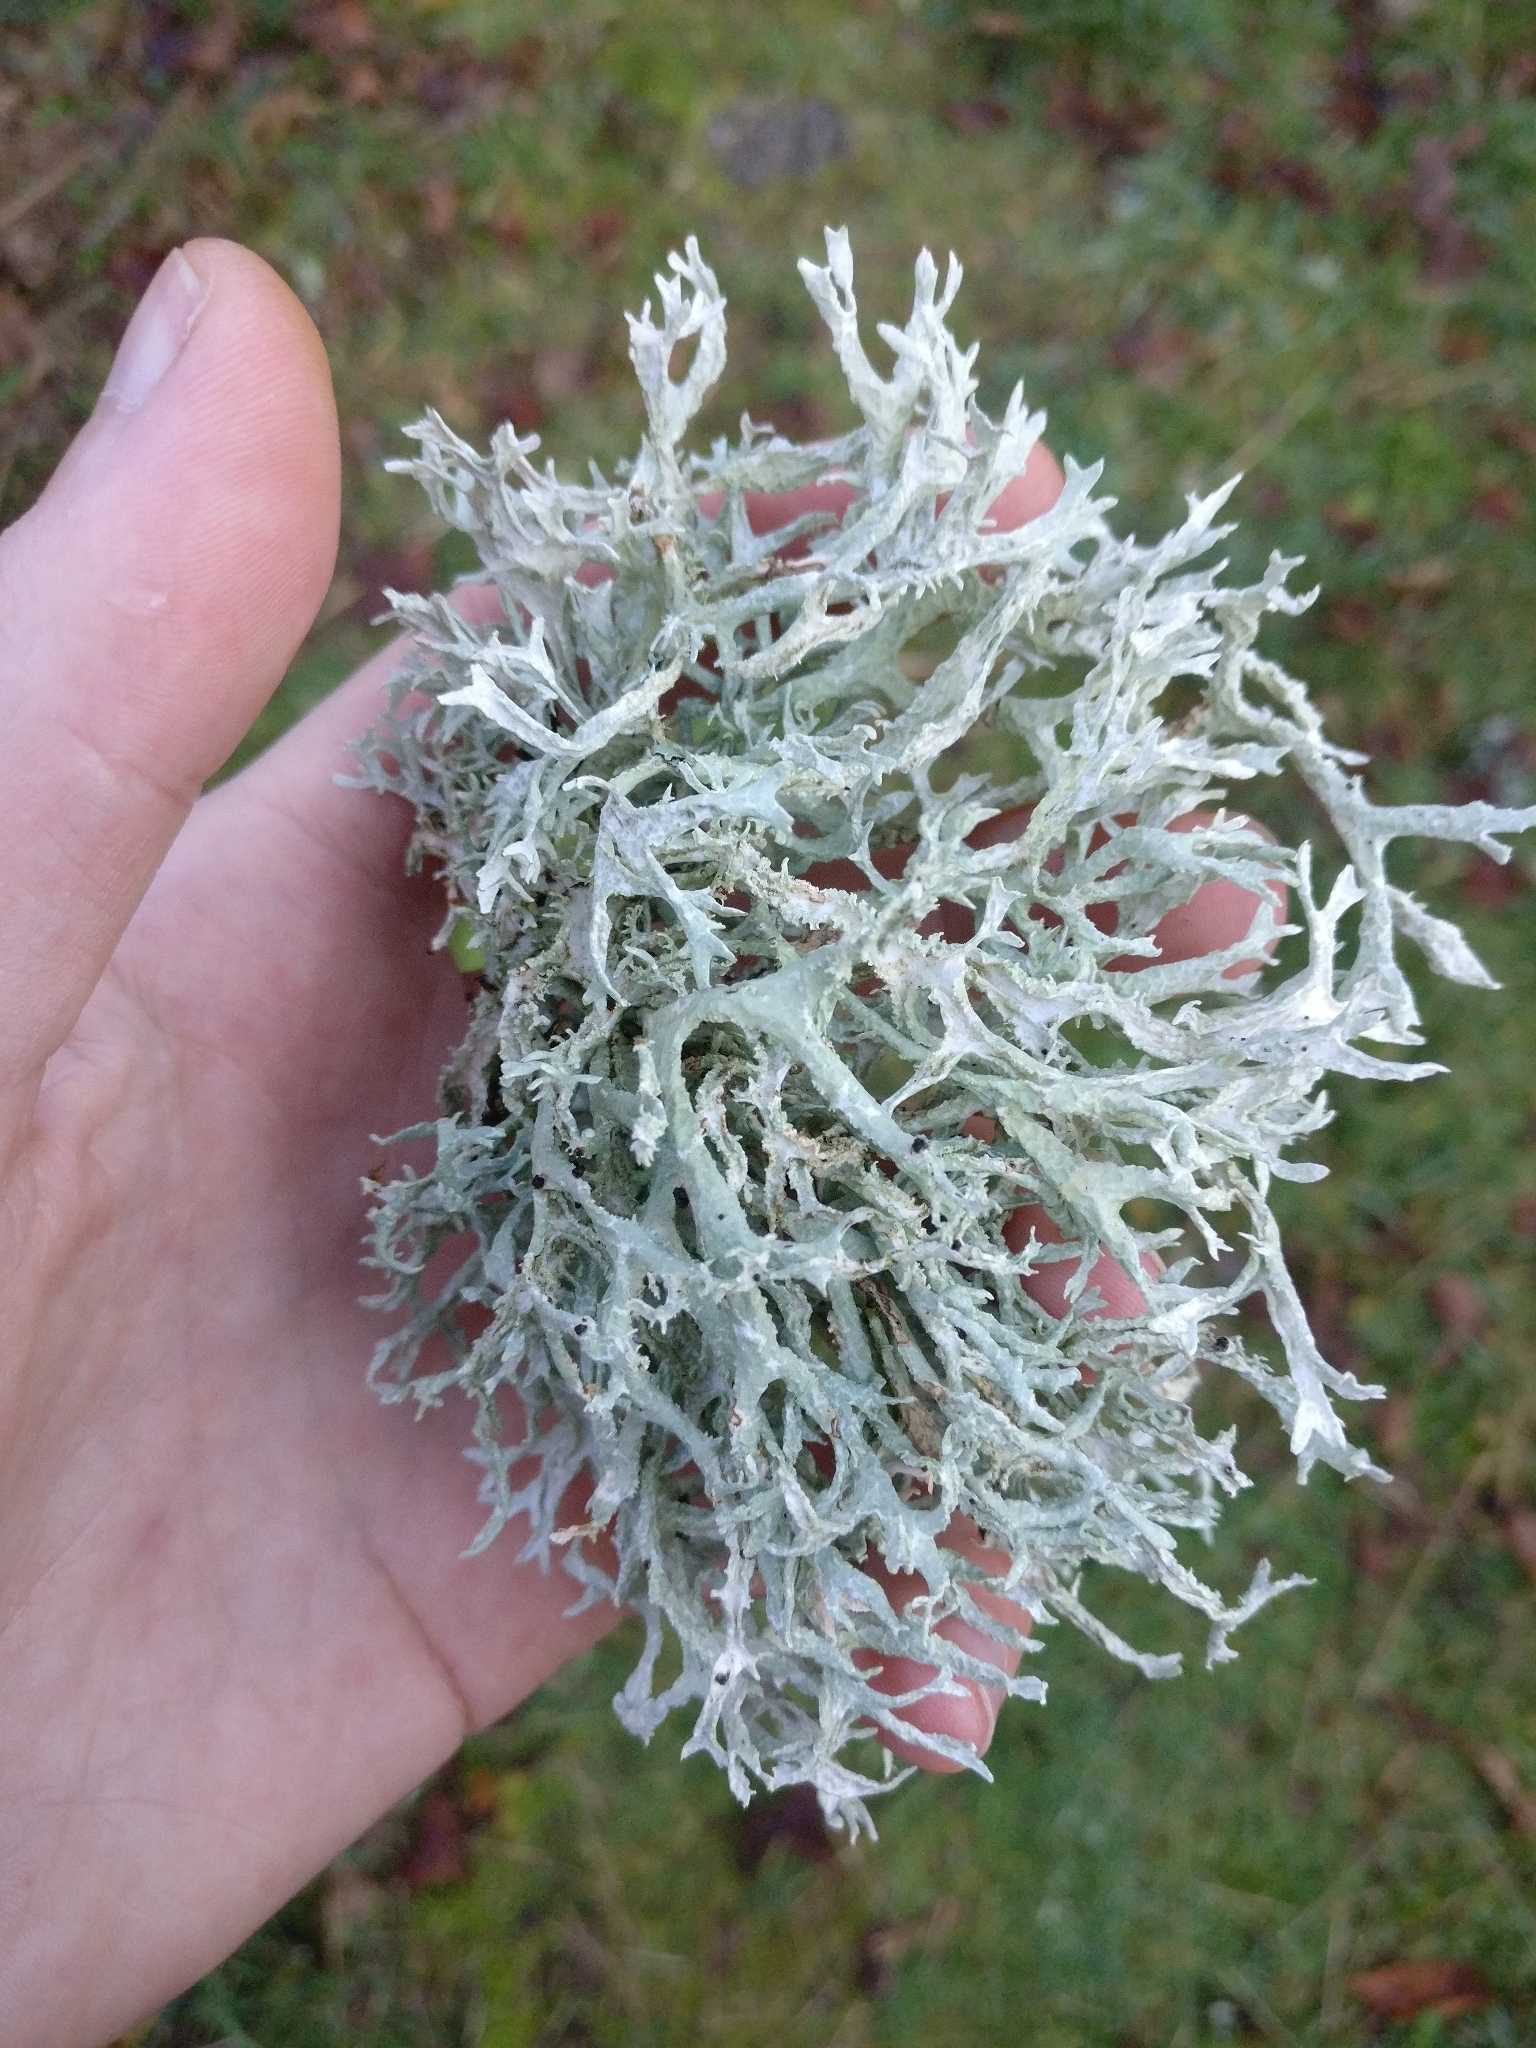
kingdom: Fungi
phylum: Ascomycota
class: Lecanoromycetes
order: Lecanorales
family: Parmeliaceae
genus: Evernia
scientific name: Evernia prunastri
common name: Oak moss
